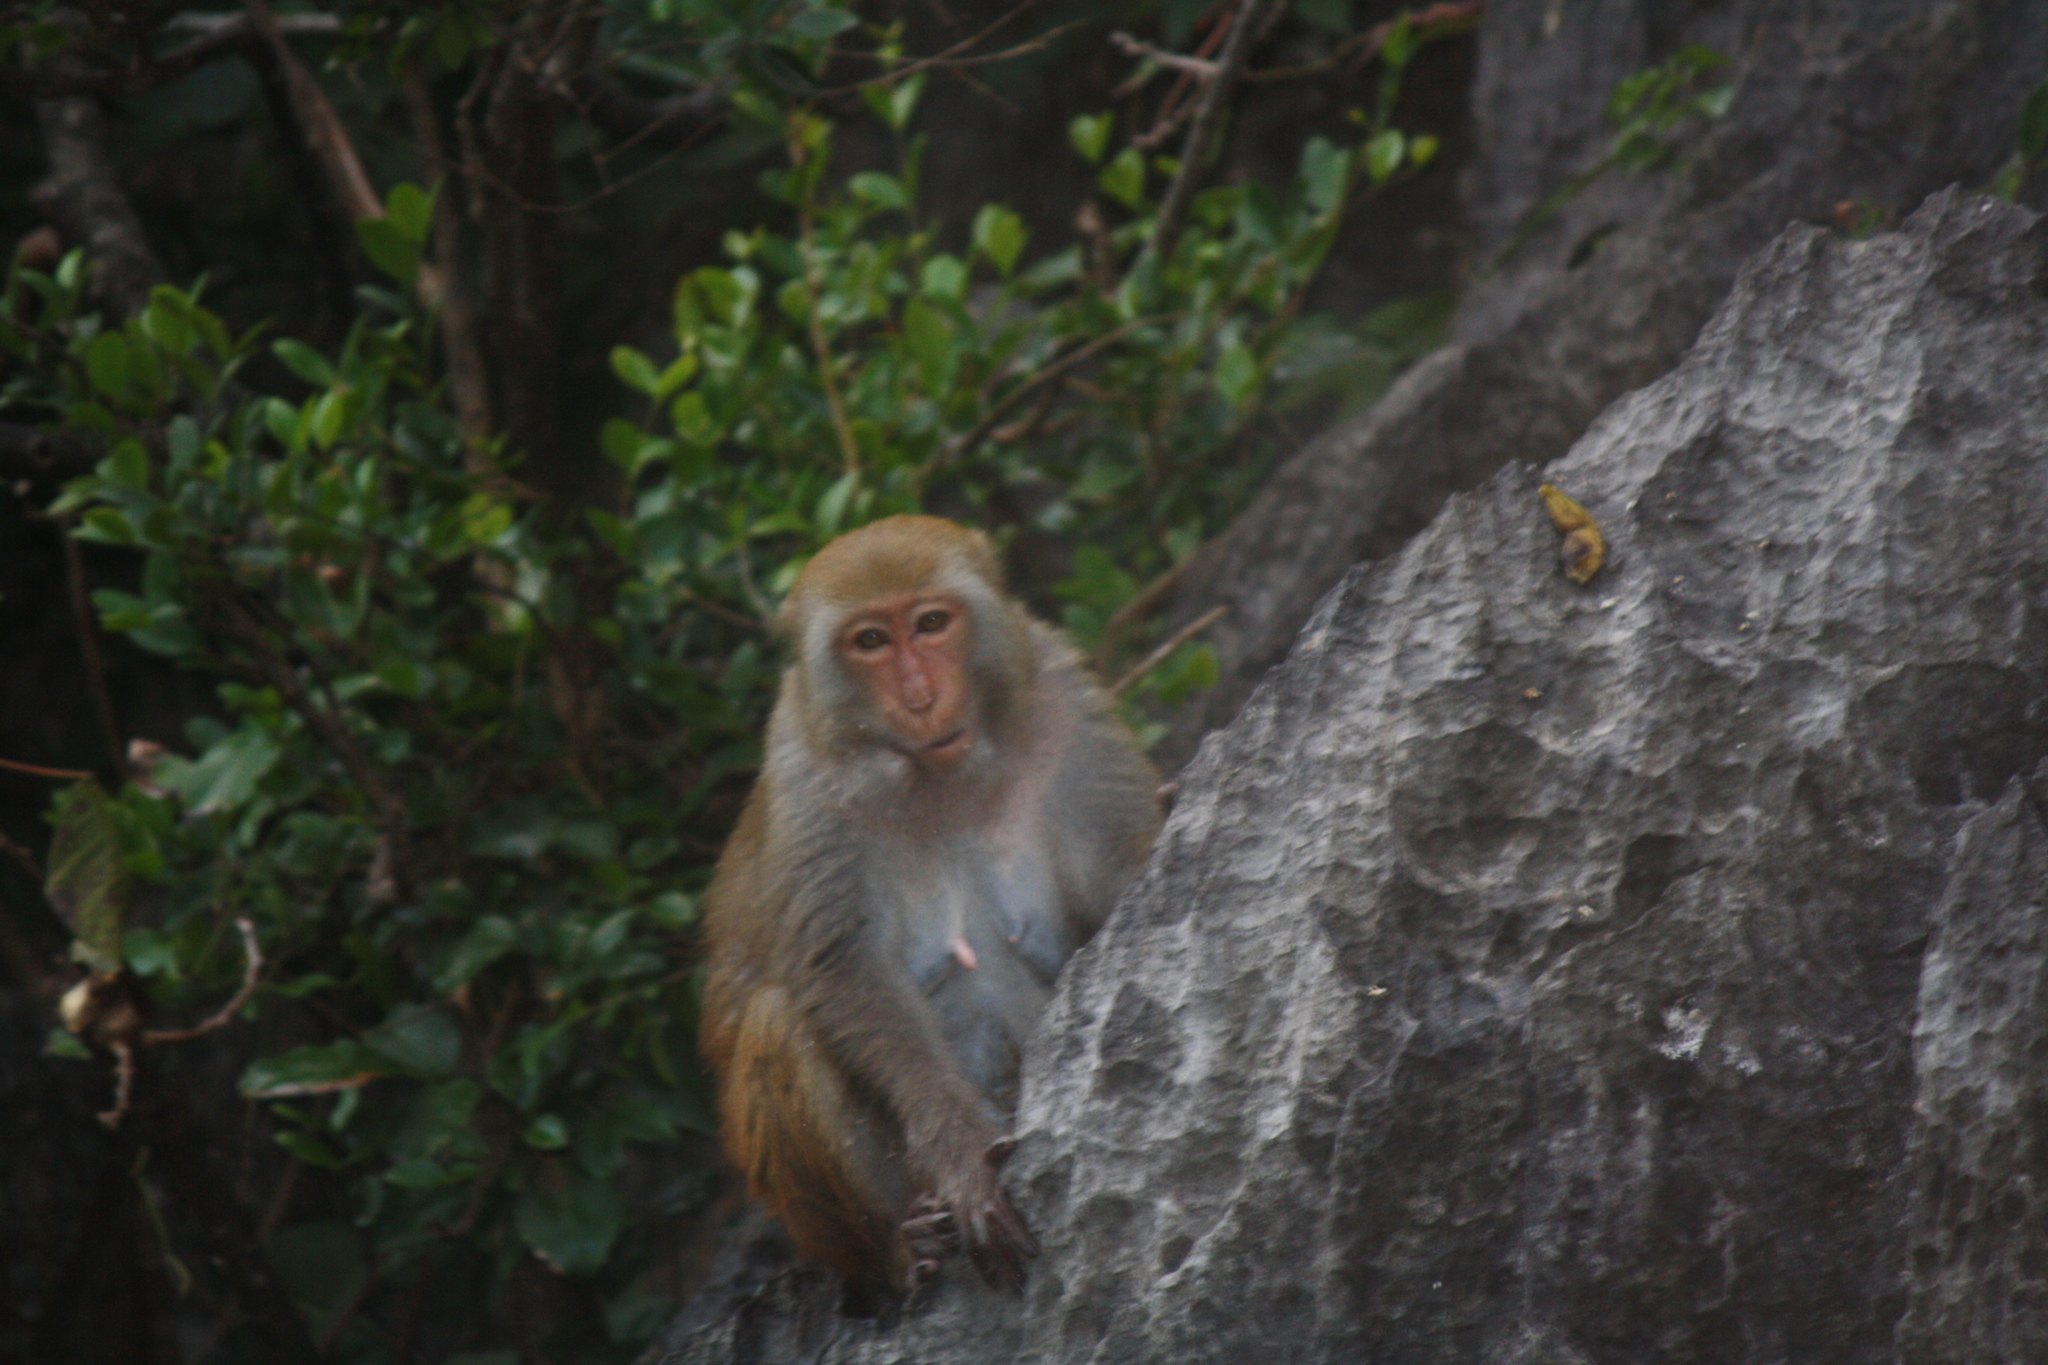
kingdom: Animalia
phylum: Chordata
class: Mammalia
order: Primates
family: Cercopithecidae
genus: Macaca
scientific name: Macaca mulatta
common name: Rhesus monkey
